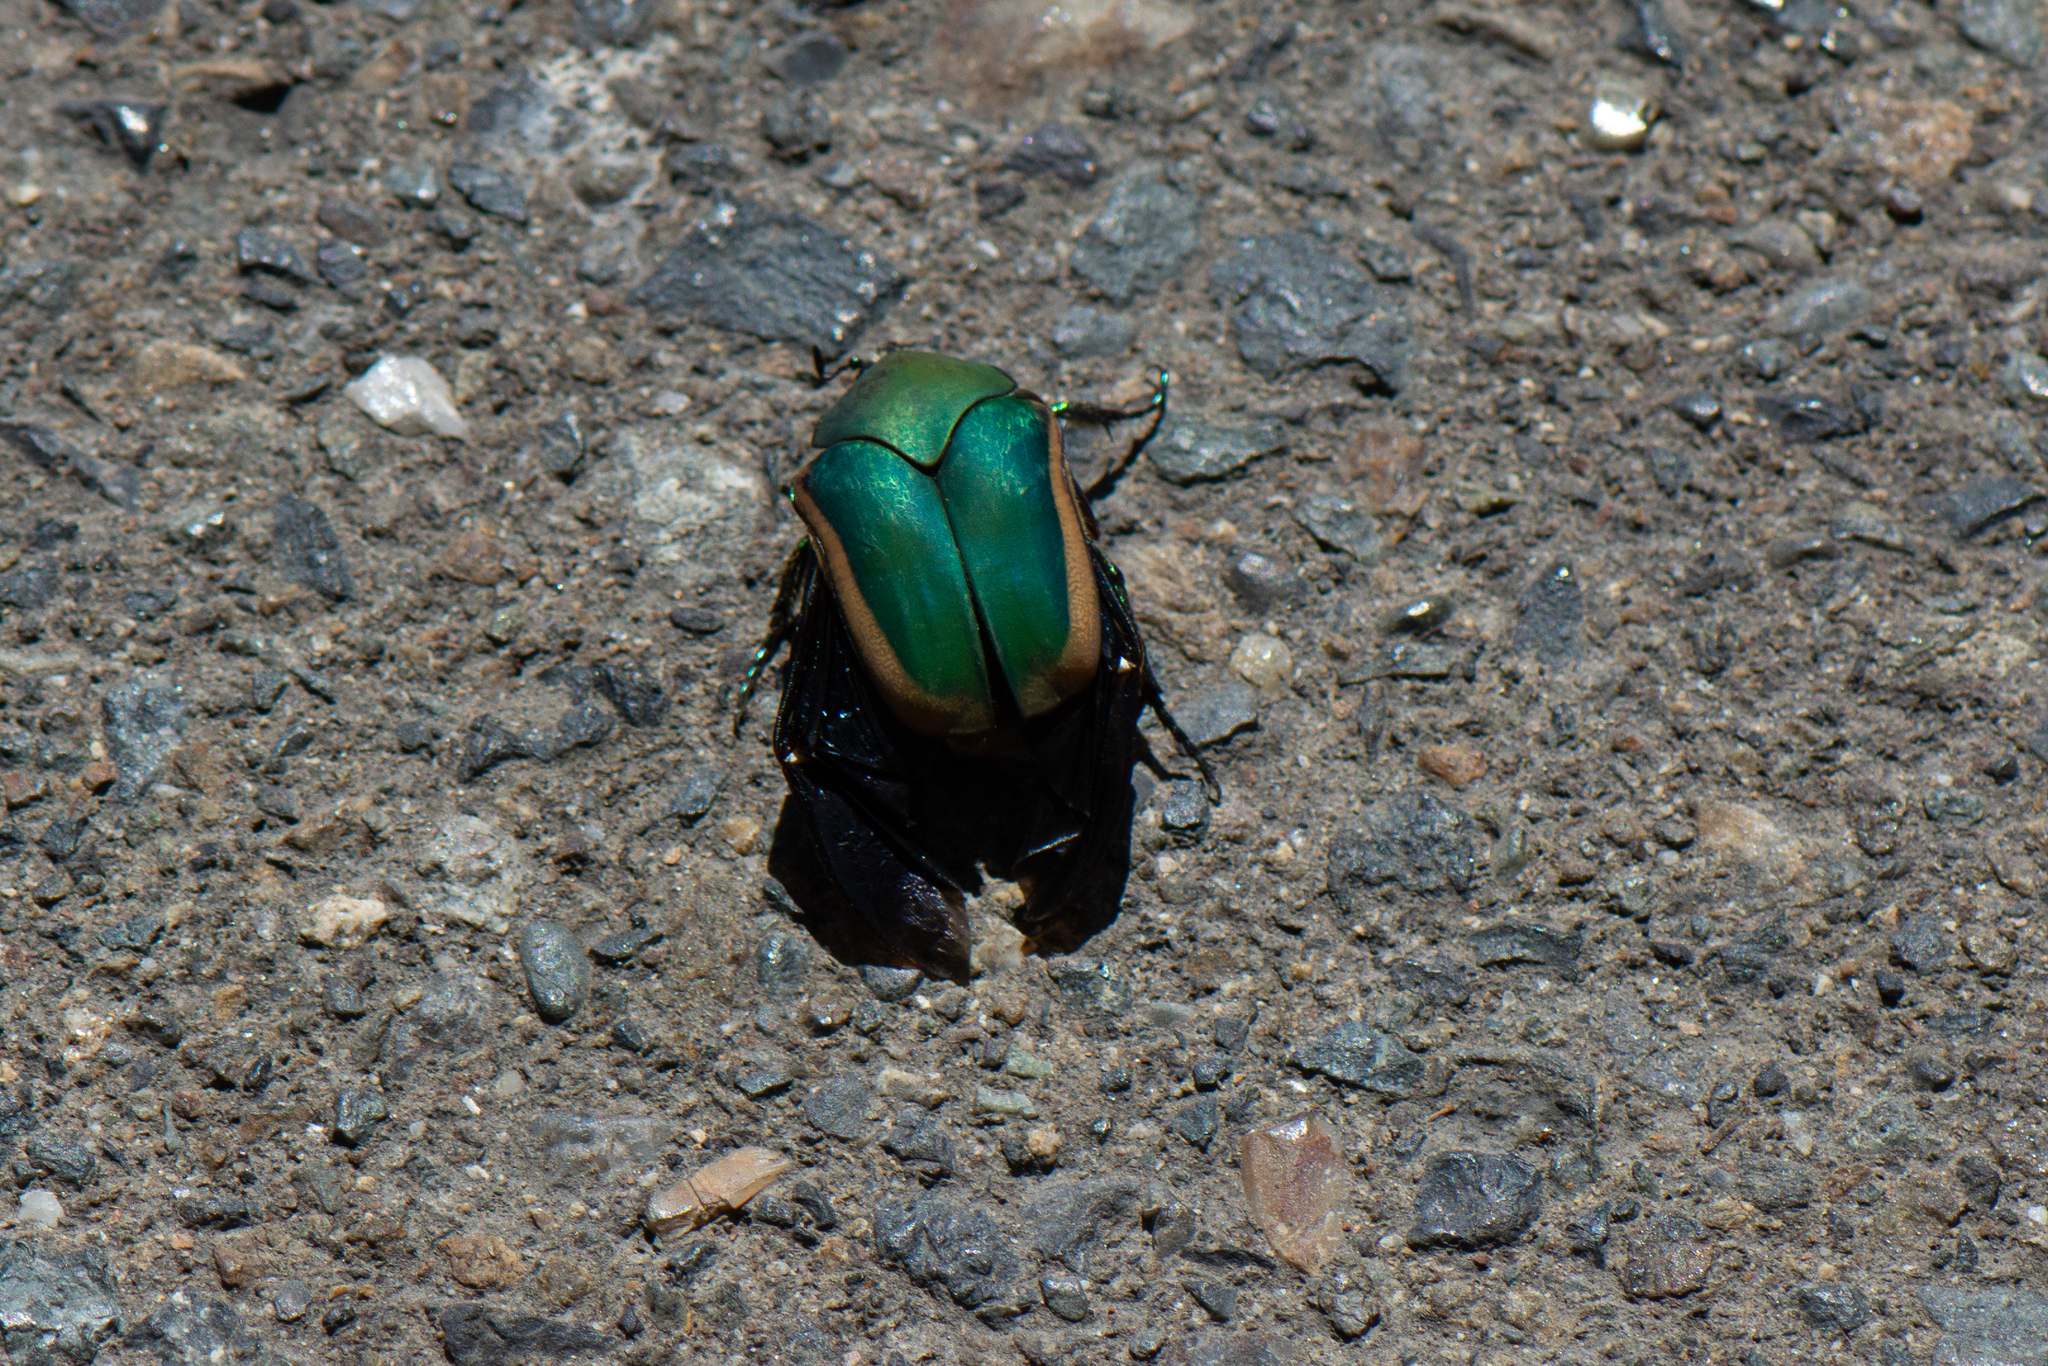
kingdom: Animalia
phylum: Arthropoda
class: Insecta
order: Coleoptera
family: Scarabaeidae
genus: Cotinis
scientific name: Cotinis mutabilis
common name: Figeater beetle
